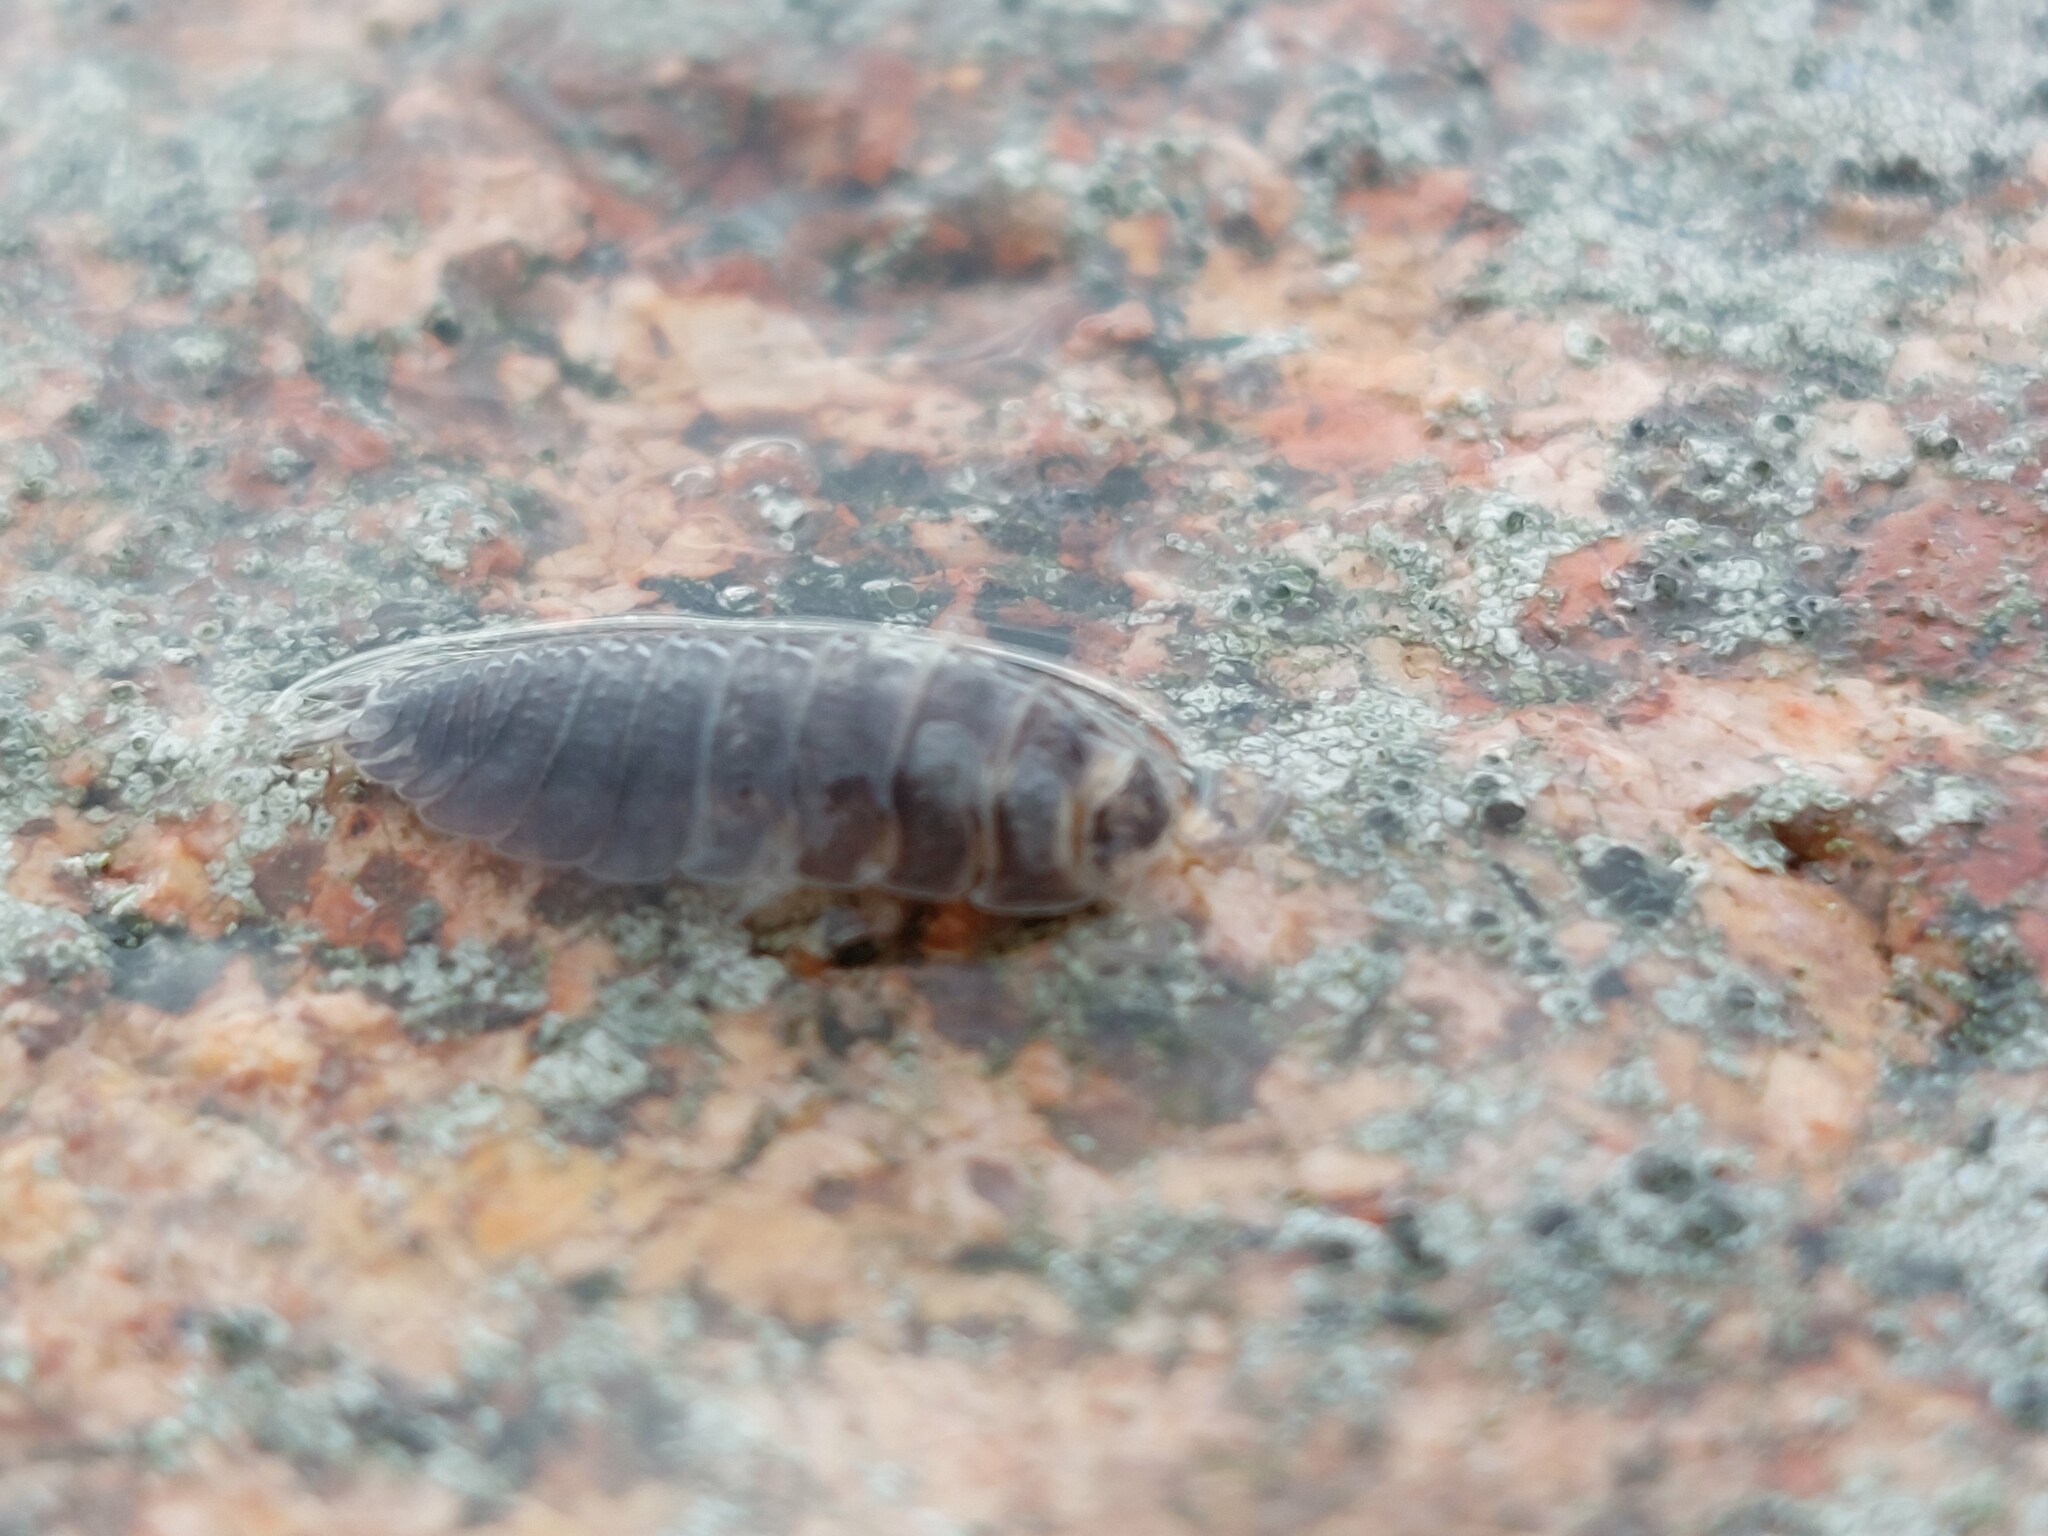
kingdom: Animalia
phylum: Arthropoda
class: Malacostraca
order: Isopoda
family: Porcellionidae
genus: Porcellio
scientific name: Porcellio scaber
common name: Common rough woodlouse
